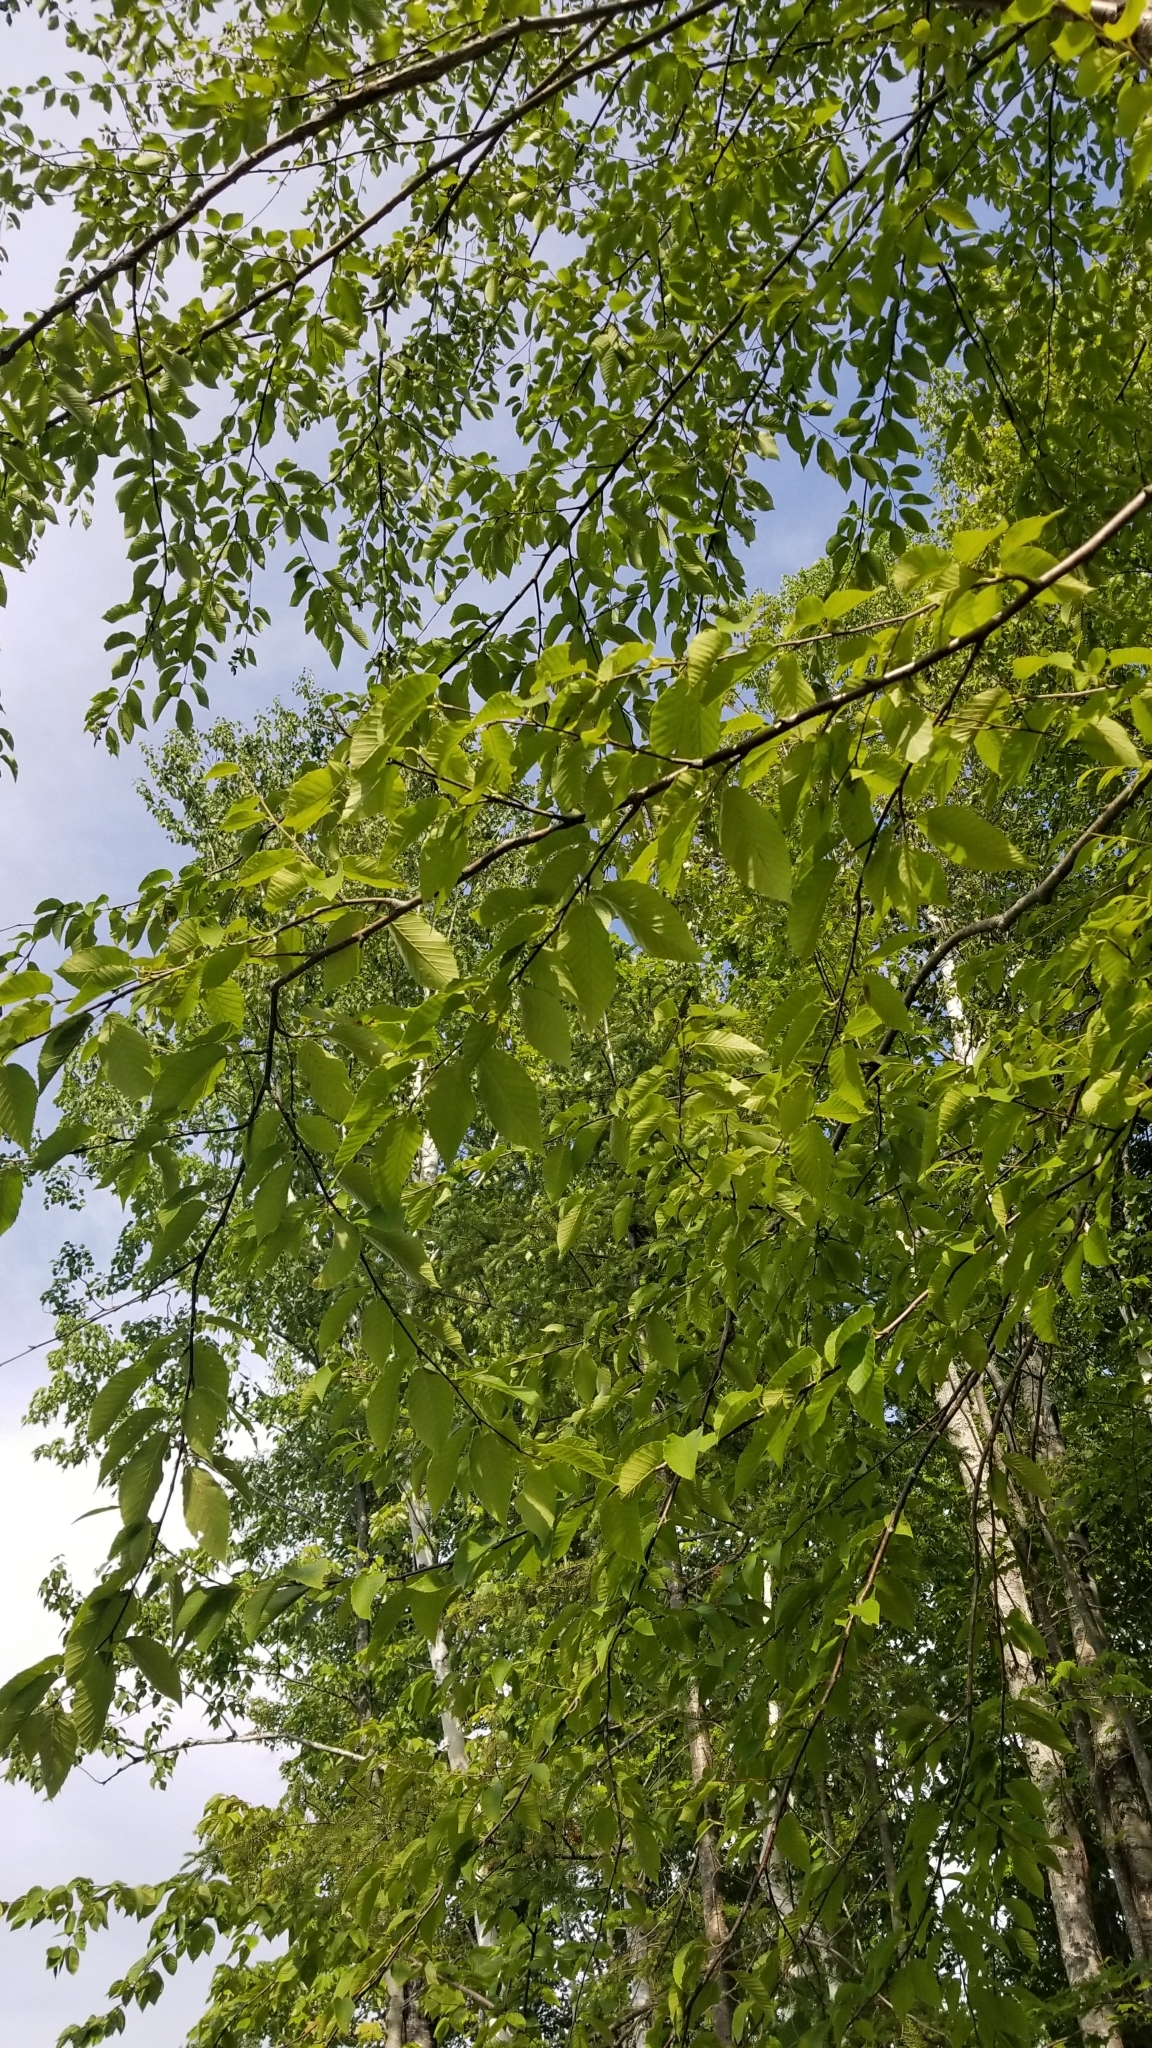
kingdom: Plantae
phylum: Tracheophyta
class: Magnoliopsida
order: Fagales
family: Betulaceae
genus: Betula
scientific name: Betula alleghaniensis
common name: Yellow birch
